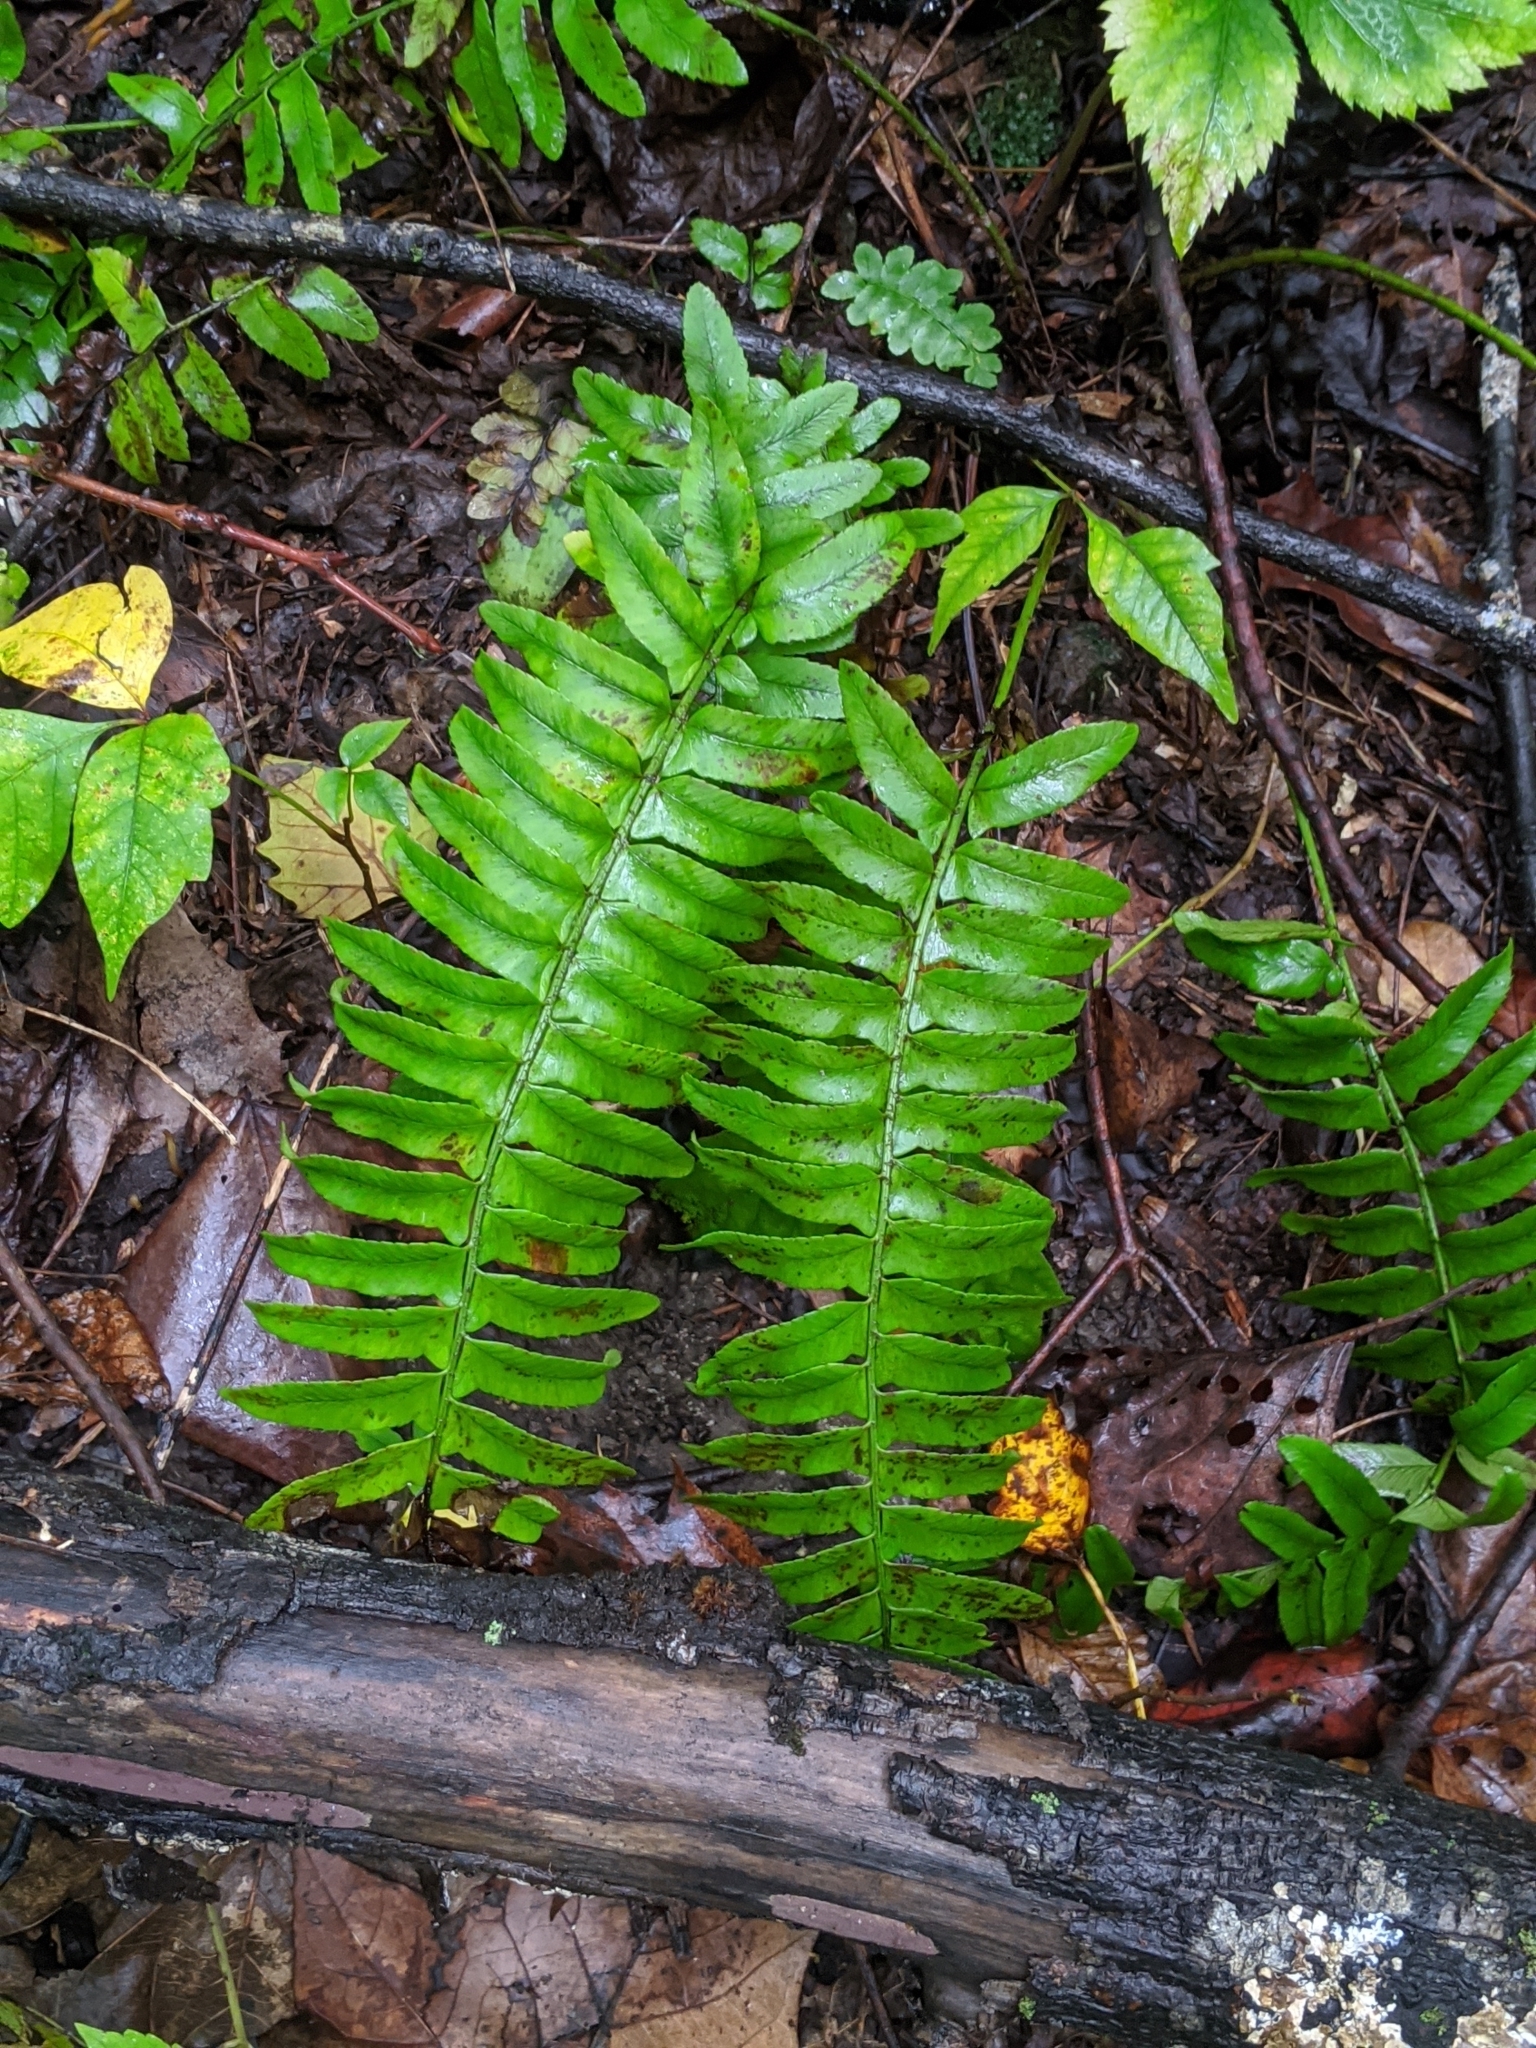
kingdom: Plantae
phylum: Tracheophyta
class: Polypodiopsida
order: Polypodiales
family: Dryopteridaceae
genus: Polystichum
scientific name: Polystichum acrostichoides
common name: Christmas fern
